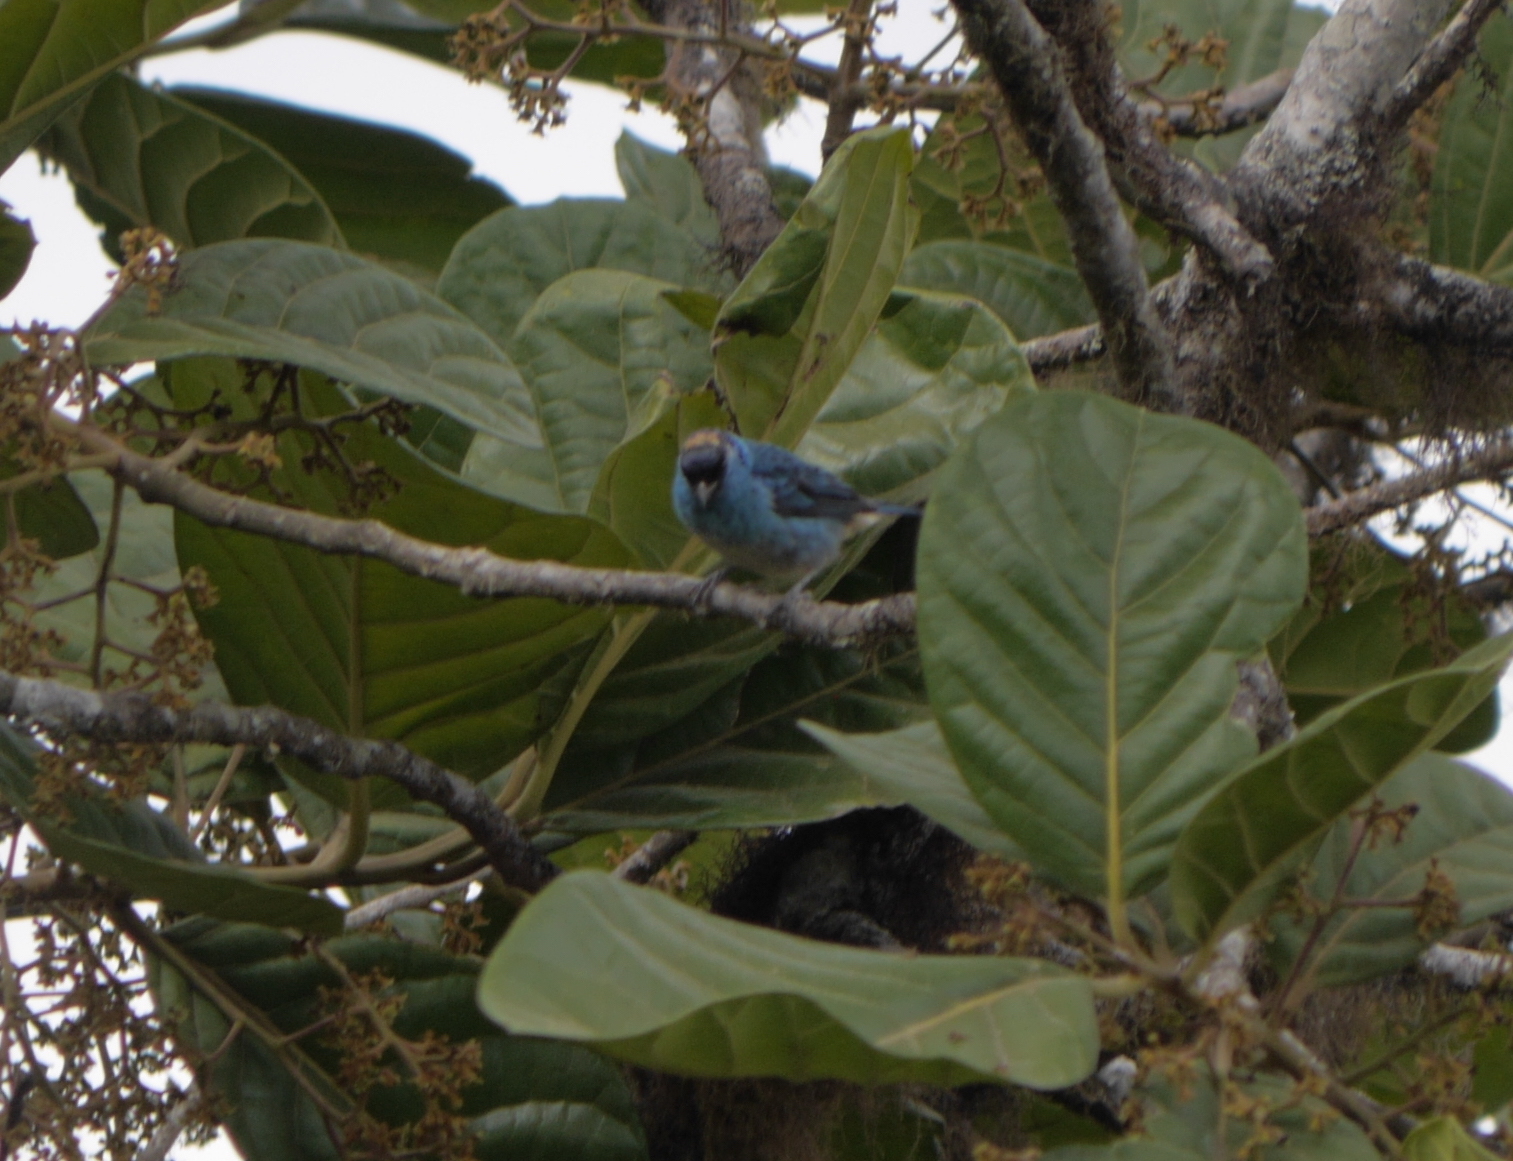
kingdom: Animalia
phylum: Chordata
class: Aves
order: Passeriformes
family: Thraupidae
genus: Chalcothraupis
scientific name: Chalcothraupis ruficervix
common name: Golden-naped tanager
